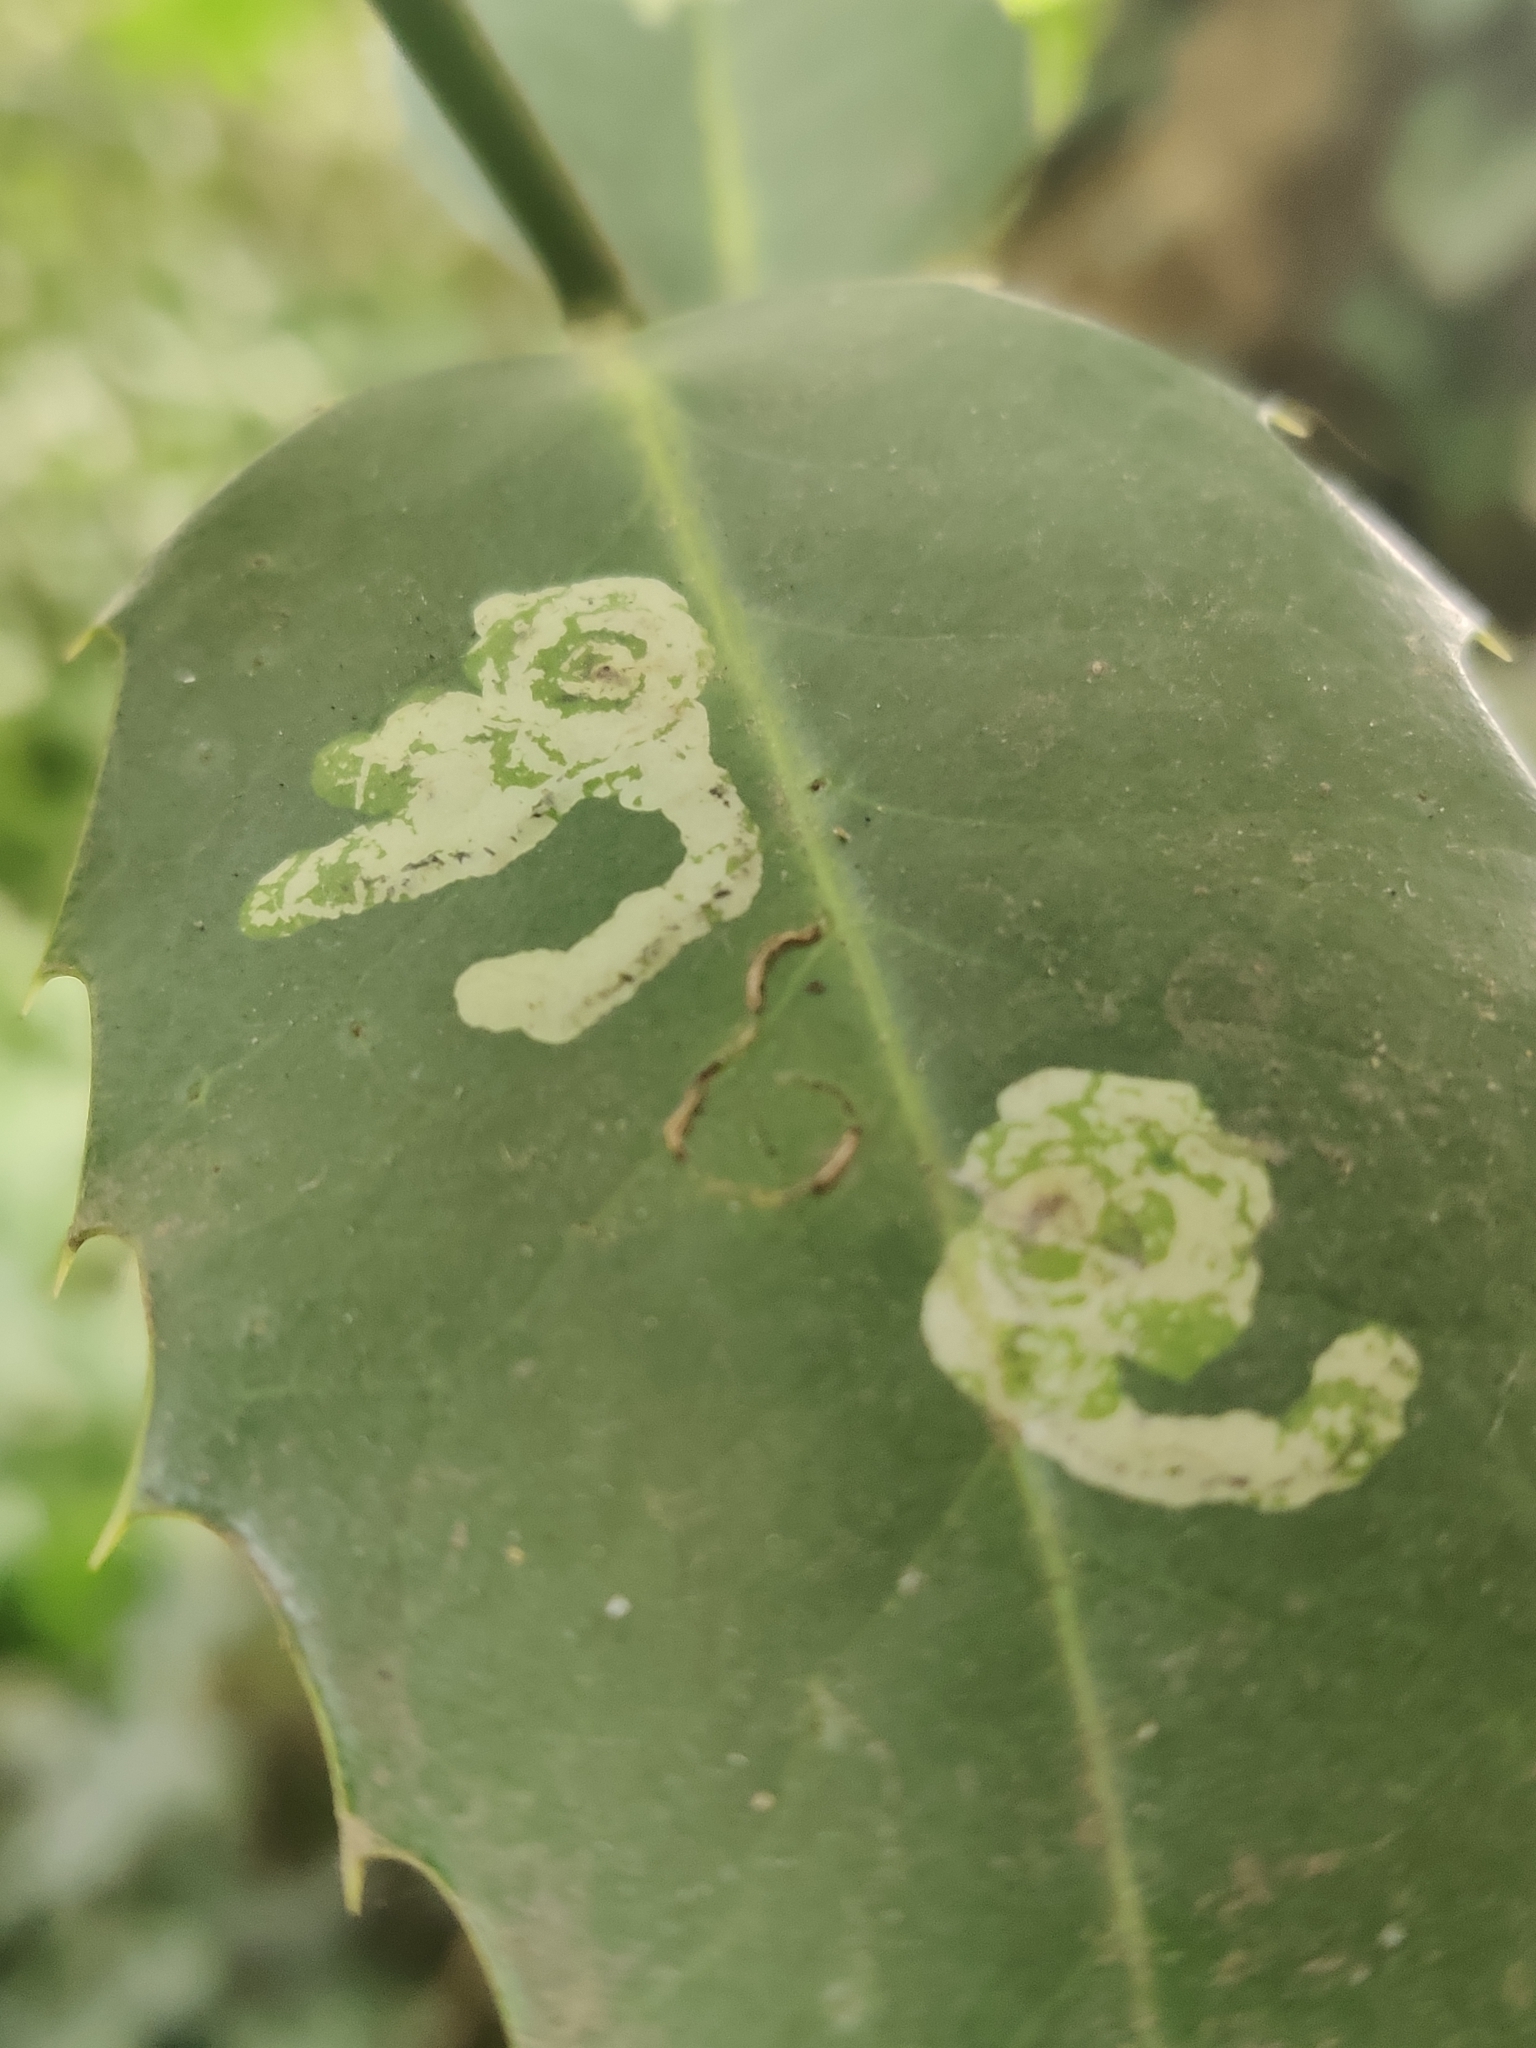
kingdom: Animalia
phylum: Arthropoda
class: Insecta
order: Diptera
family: Agromyzidae
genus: Phytomyza
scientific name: Phytomyza ilicis
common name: Holly leafminer
